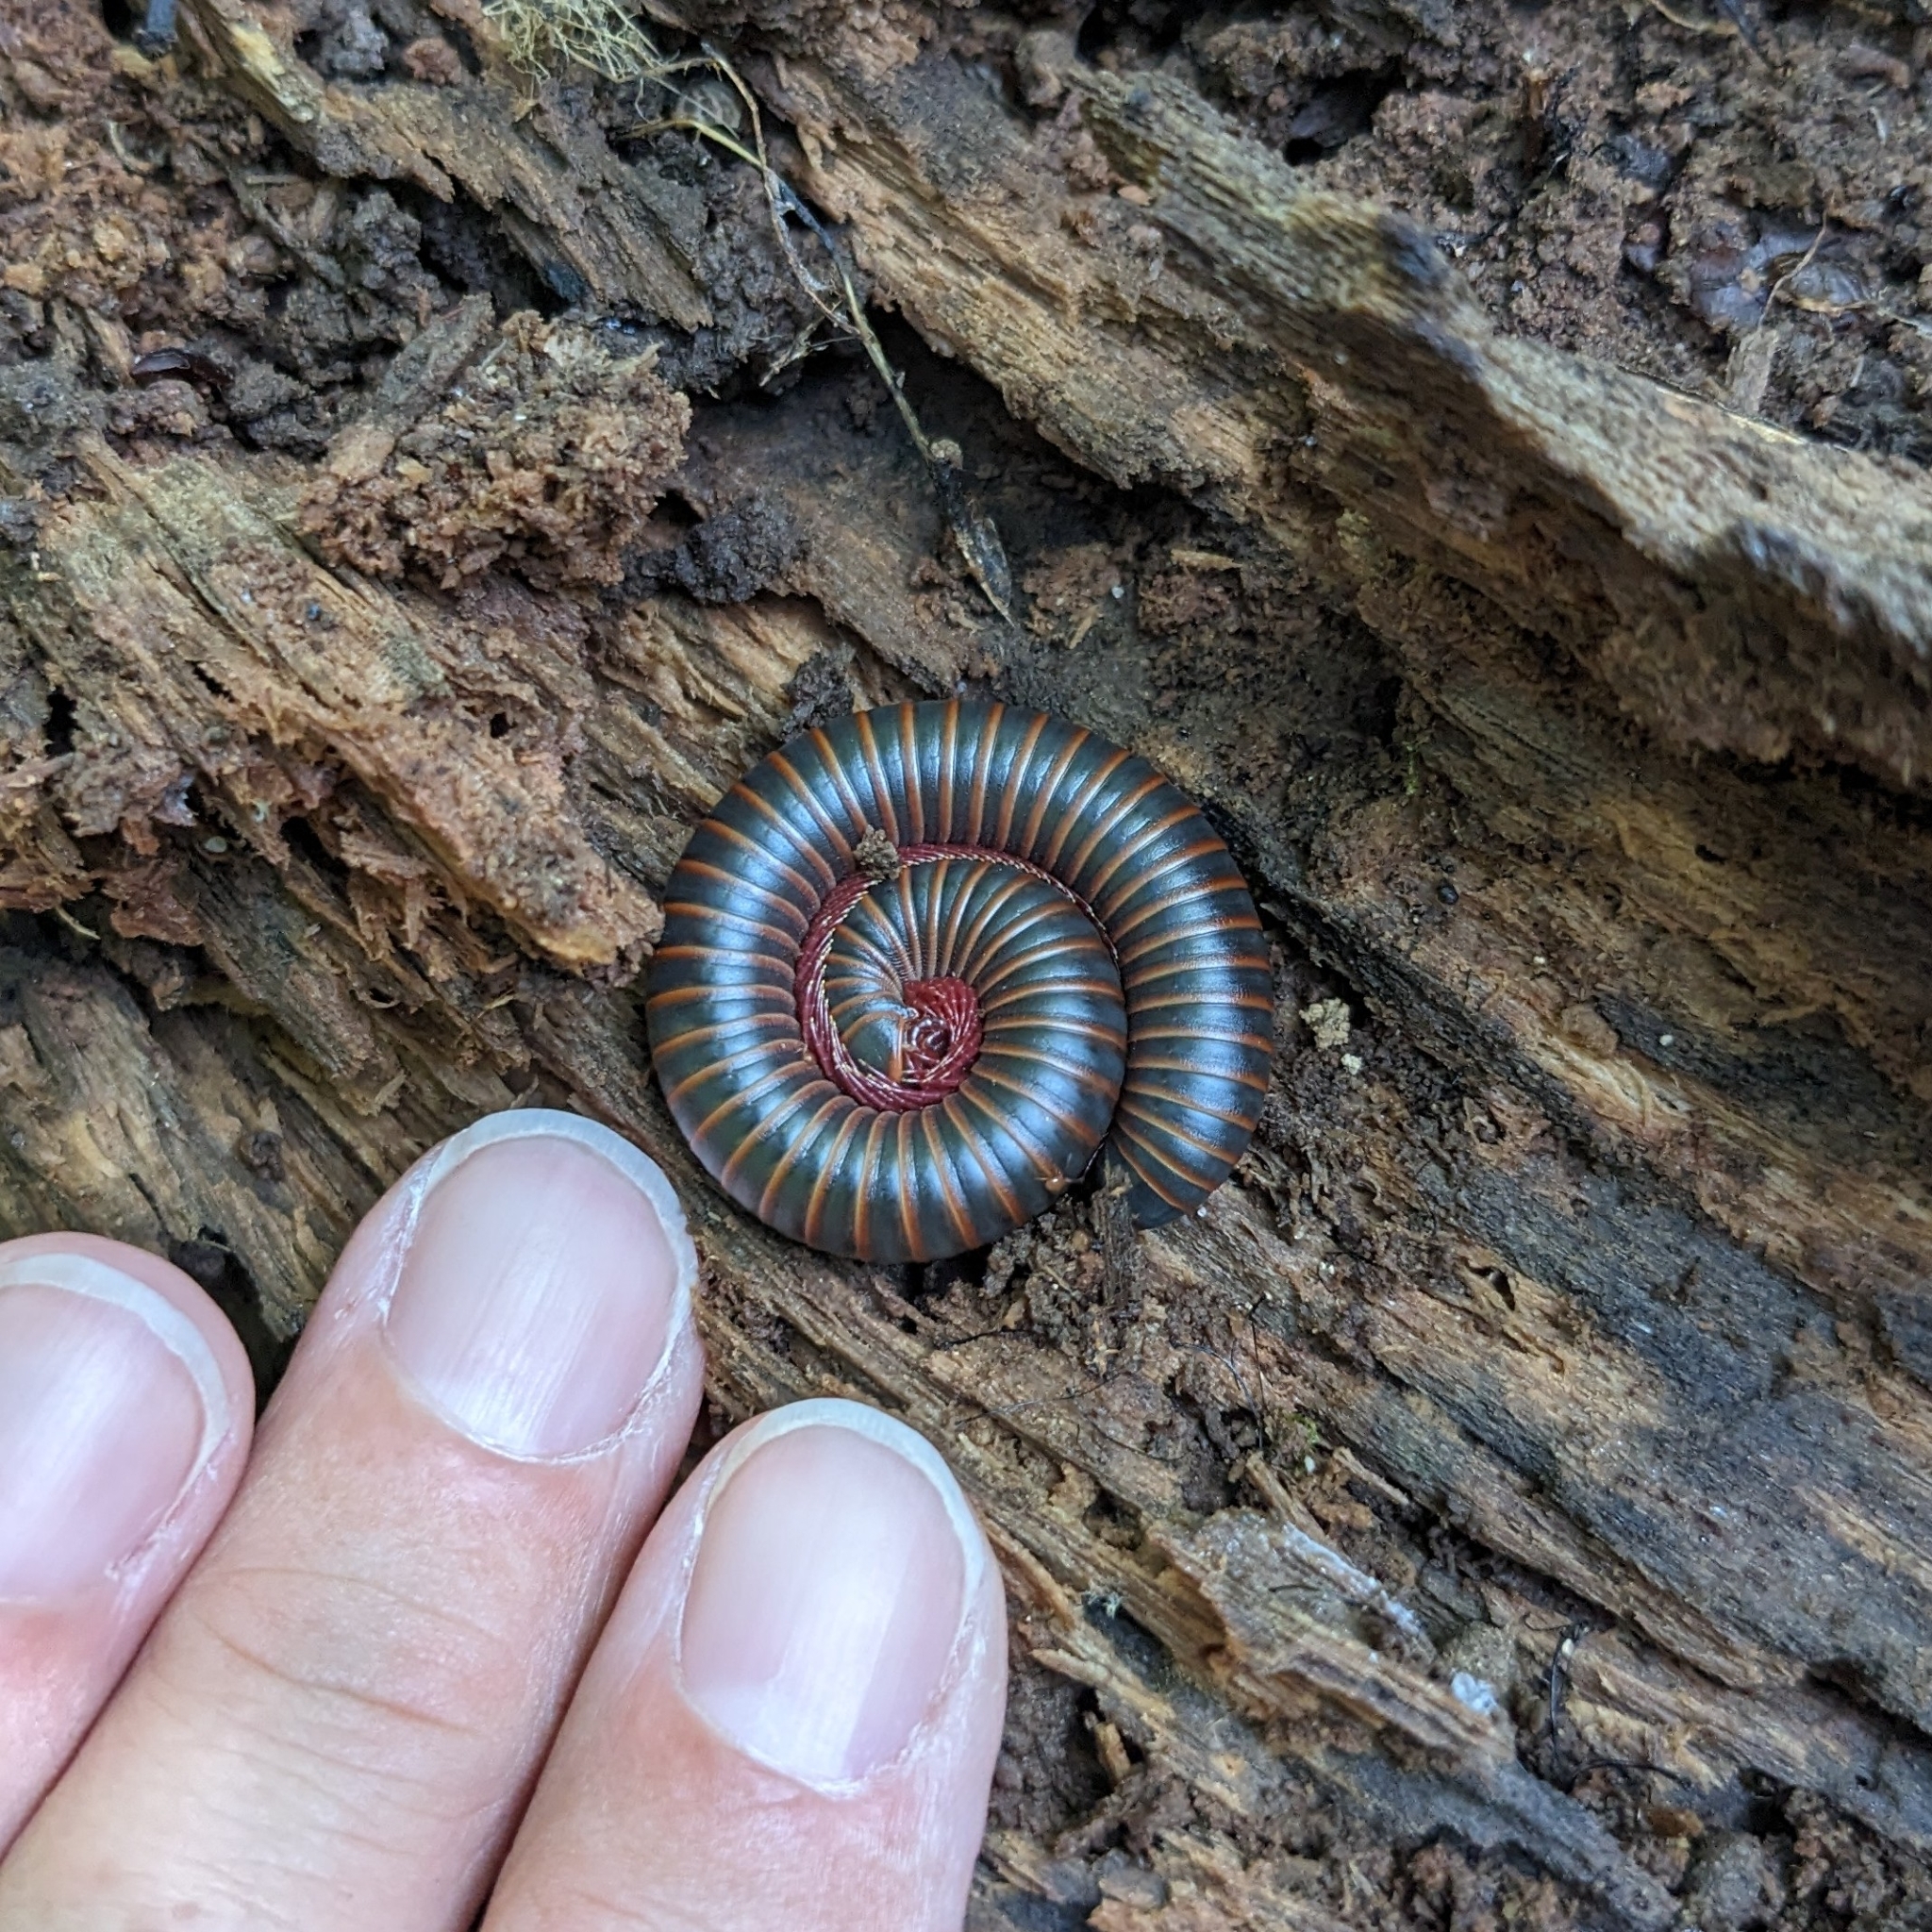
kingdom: Animalia
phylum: Arthropoda
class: Diplopoda
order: Spirobolida
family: Spirobolidae
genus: Narceus
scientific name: Narceus
